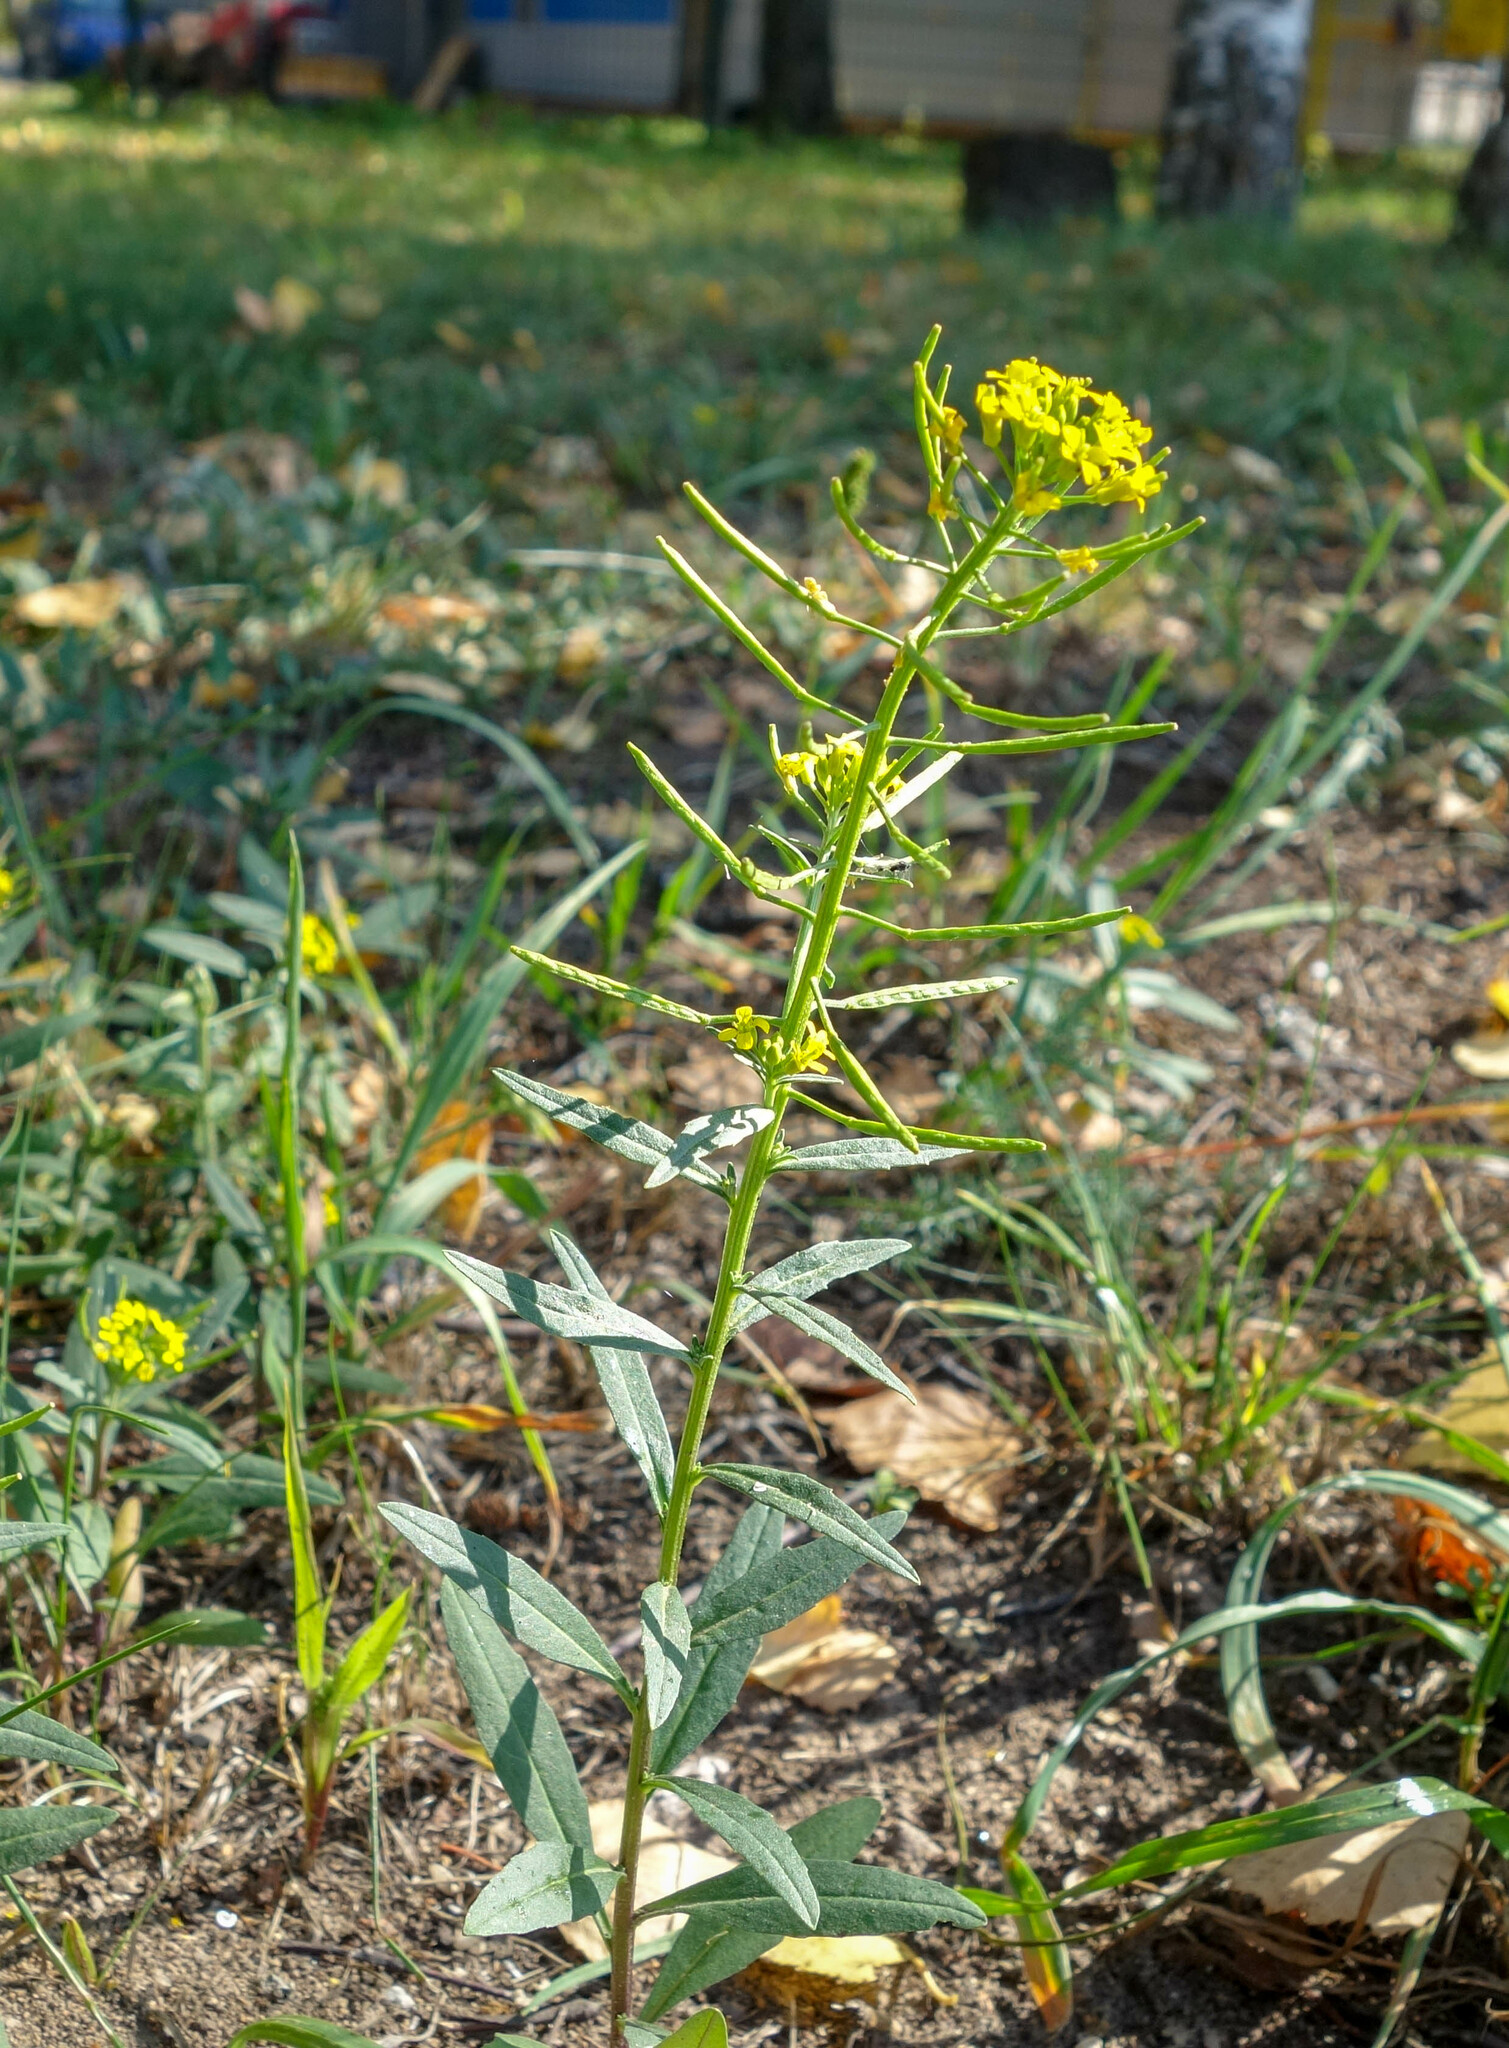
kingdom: Plantae
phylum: Tracheophyta
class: Magnoliopsida
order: Brassicales
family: Brassicaceae
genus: Erysimum
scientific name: Erysimum cheiranthoides
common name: Treacle mustard
